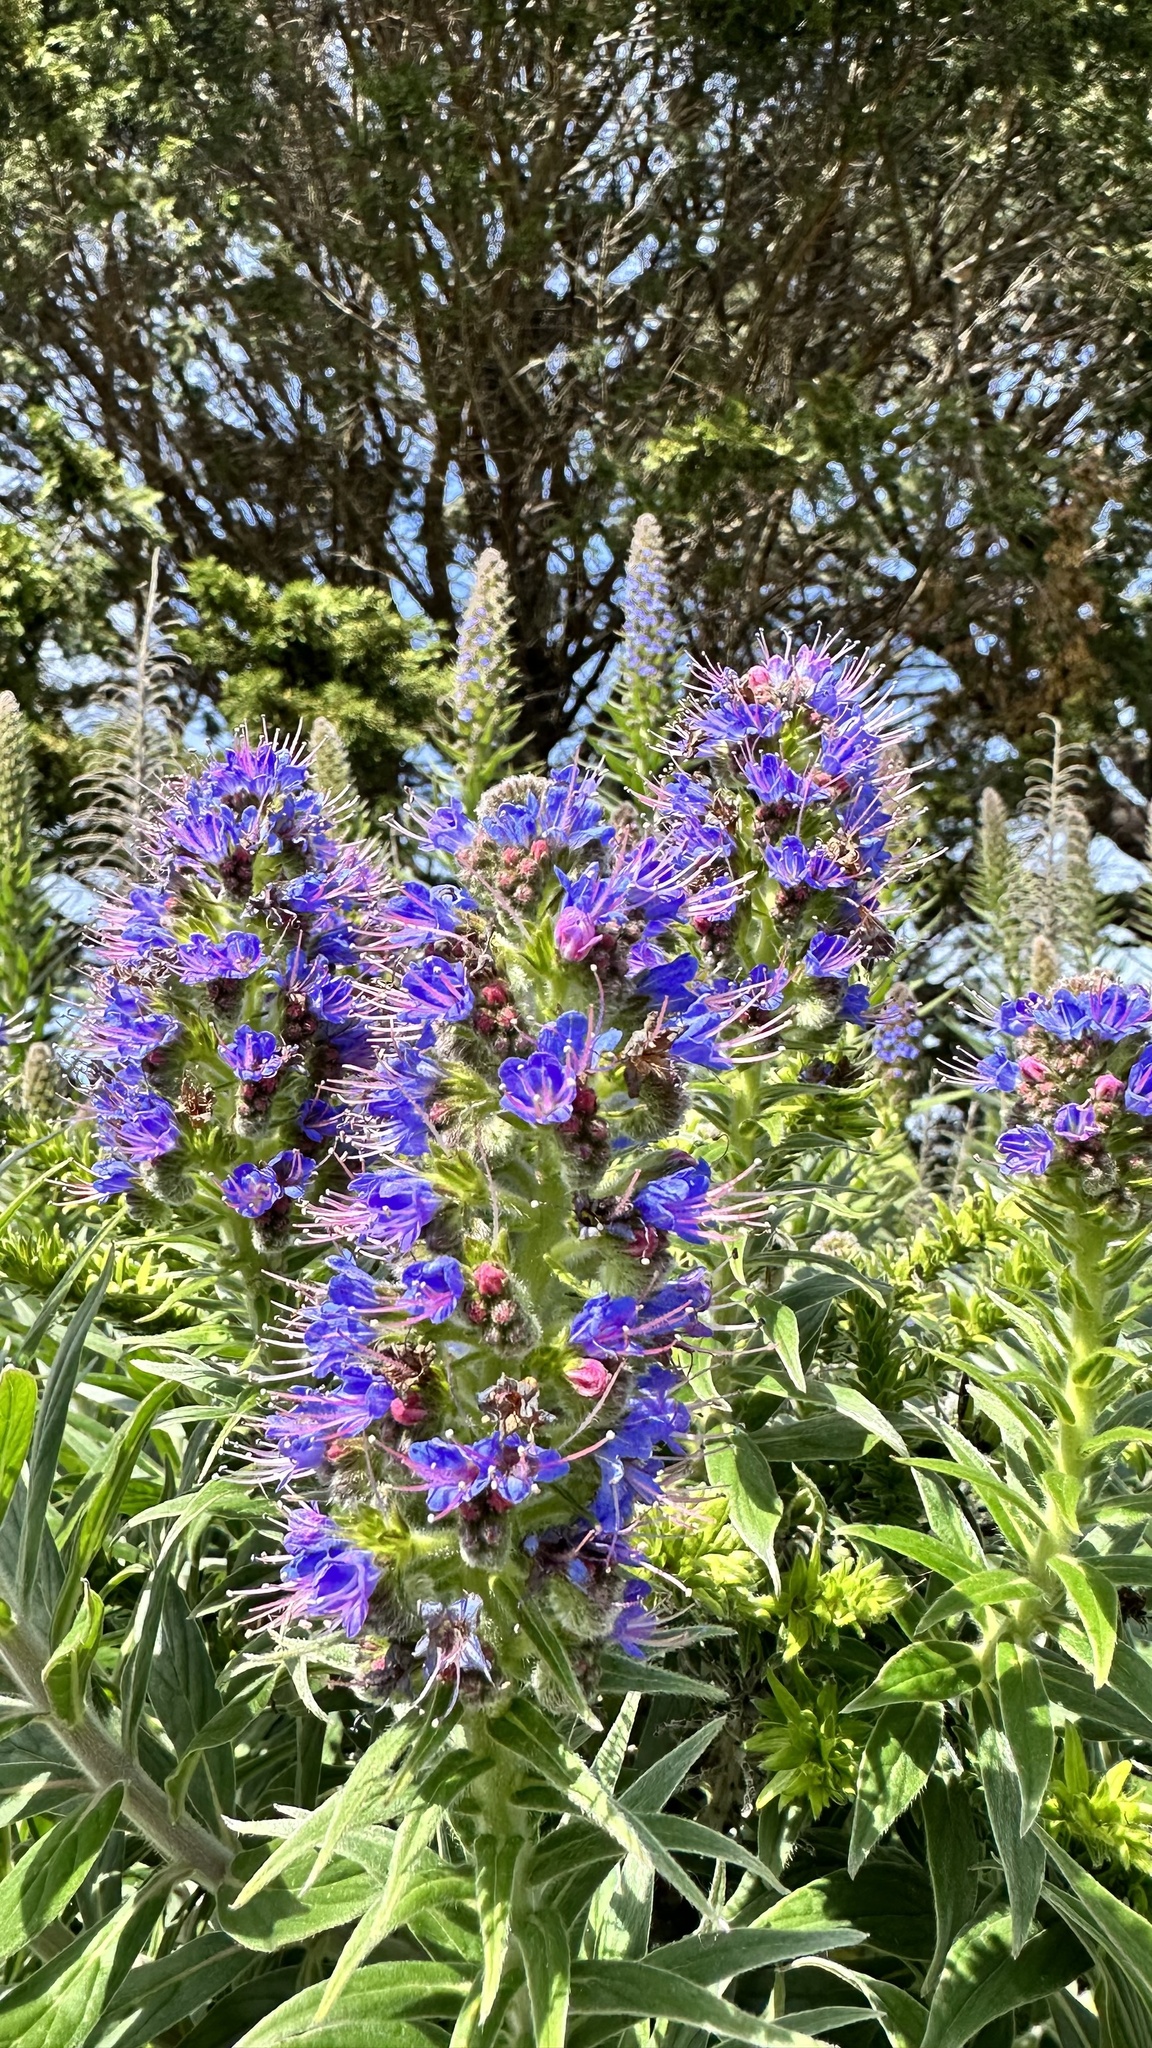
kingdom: Plantae
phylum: Tracheophyta
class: Magnoliopsida
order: Boraginales
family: Boraginaceae
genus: Echium
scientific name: Echium candicans
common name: Pride of madeira
